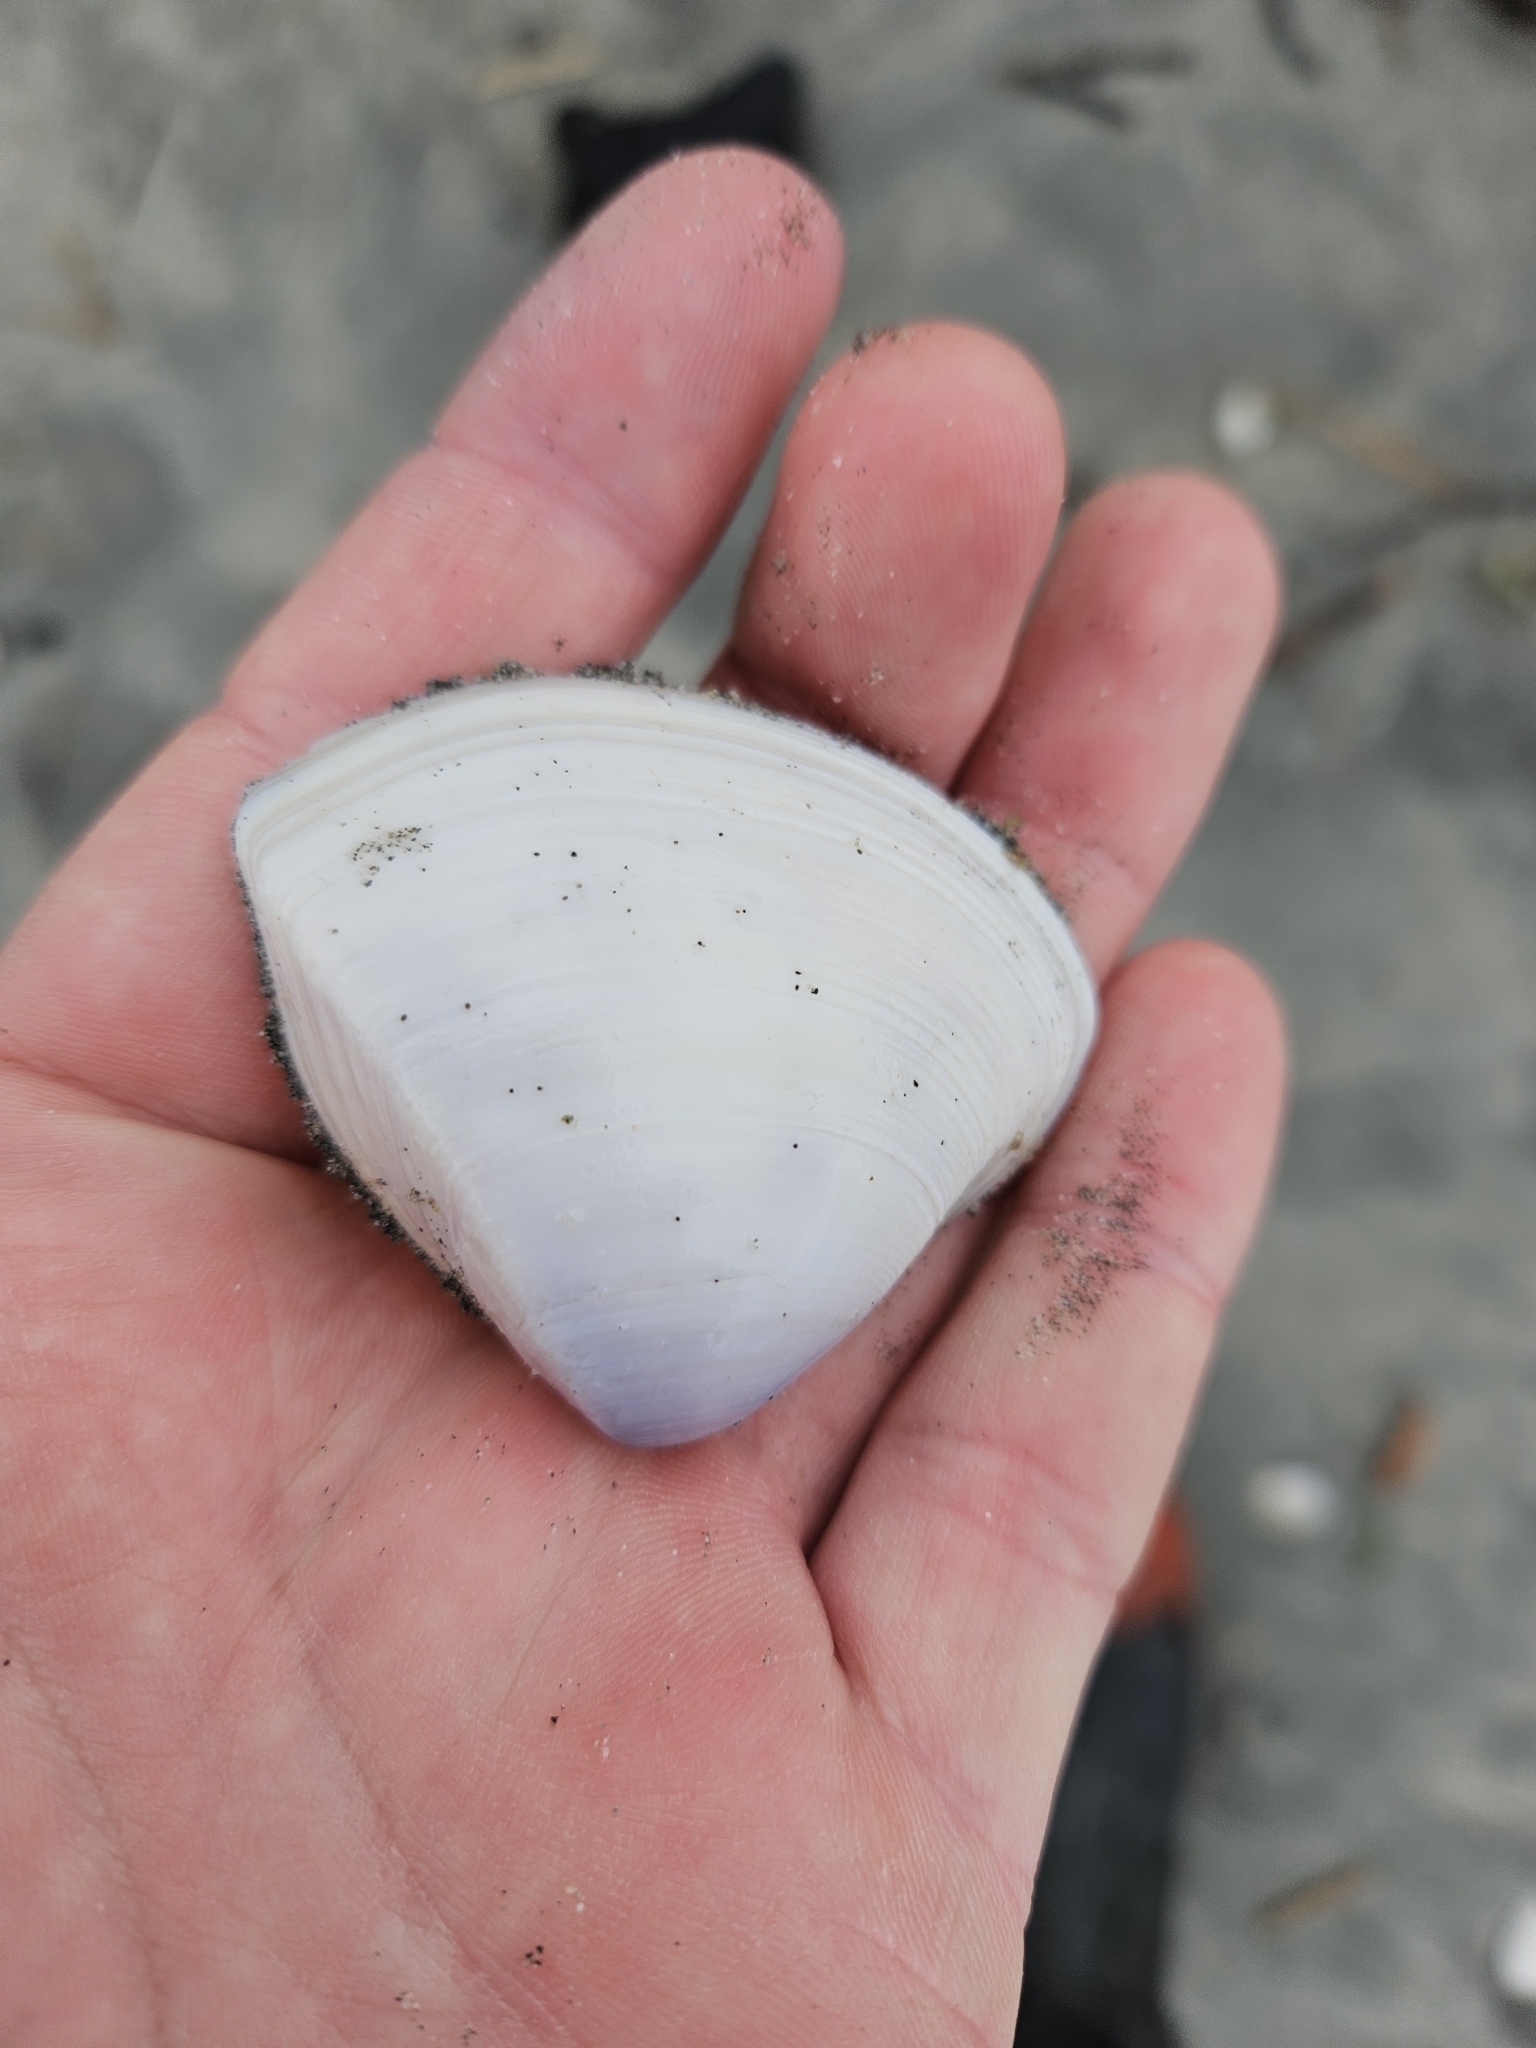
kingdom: Animalia
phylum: Mollusca
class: Bivalvia
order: Venerida
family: Mactridae
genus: Crassula
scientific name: Crassula aequilatera
